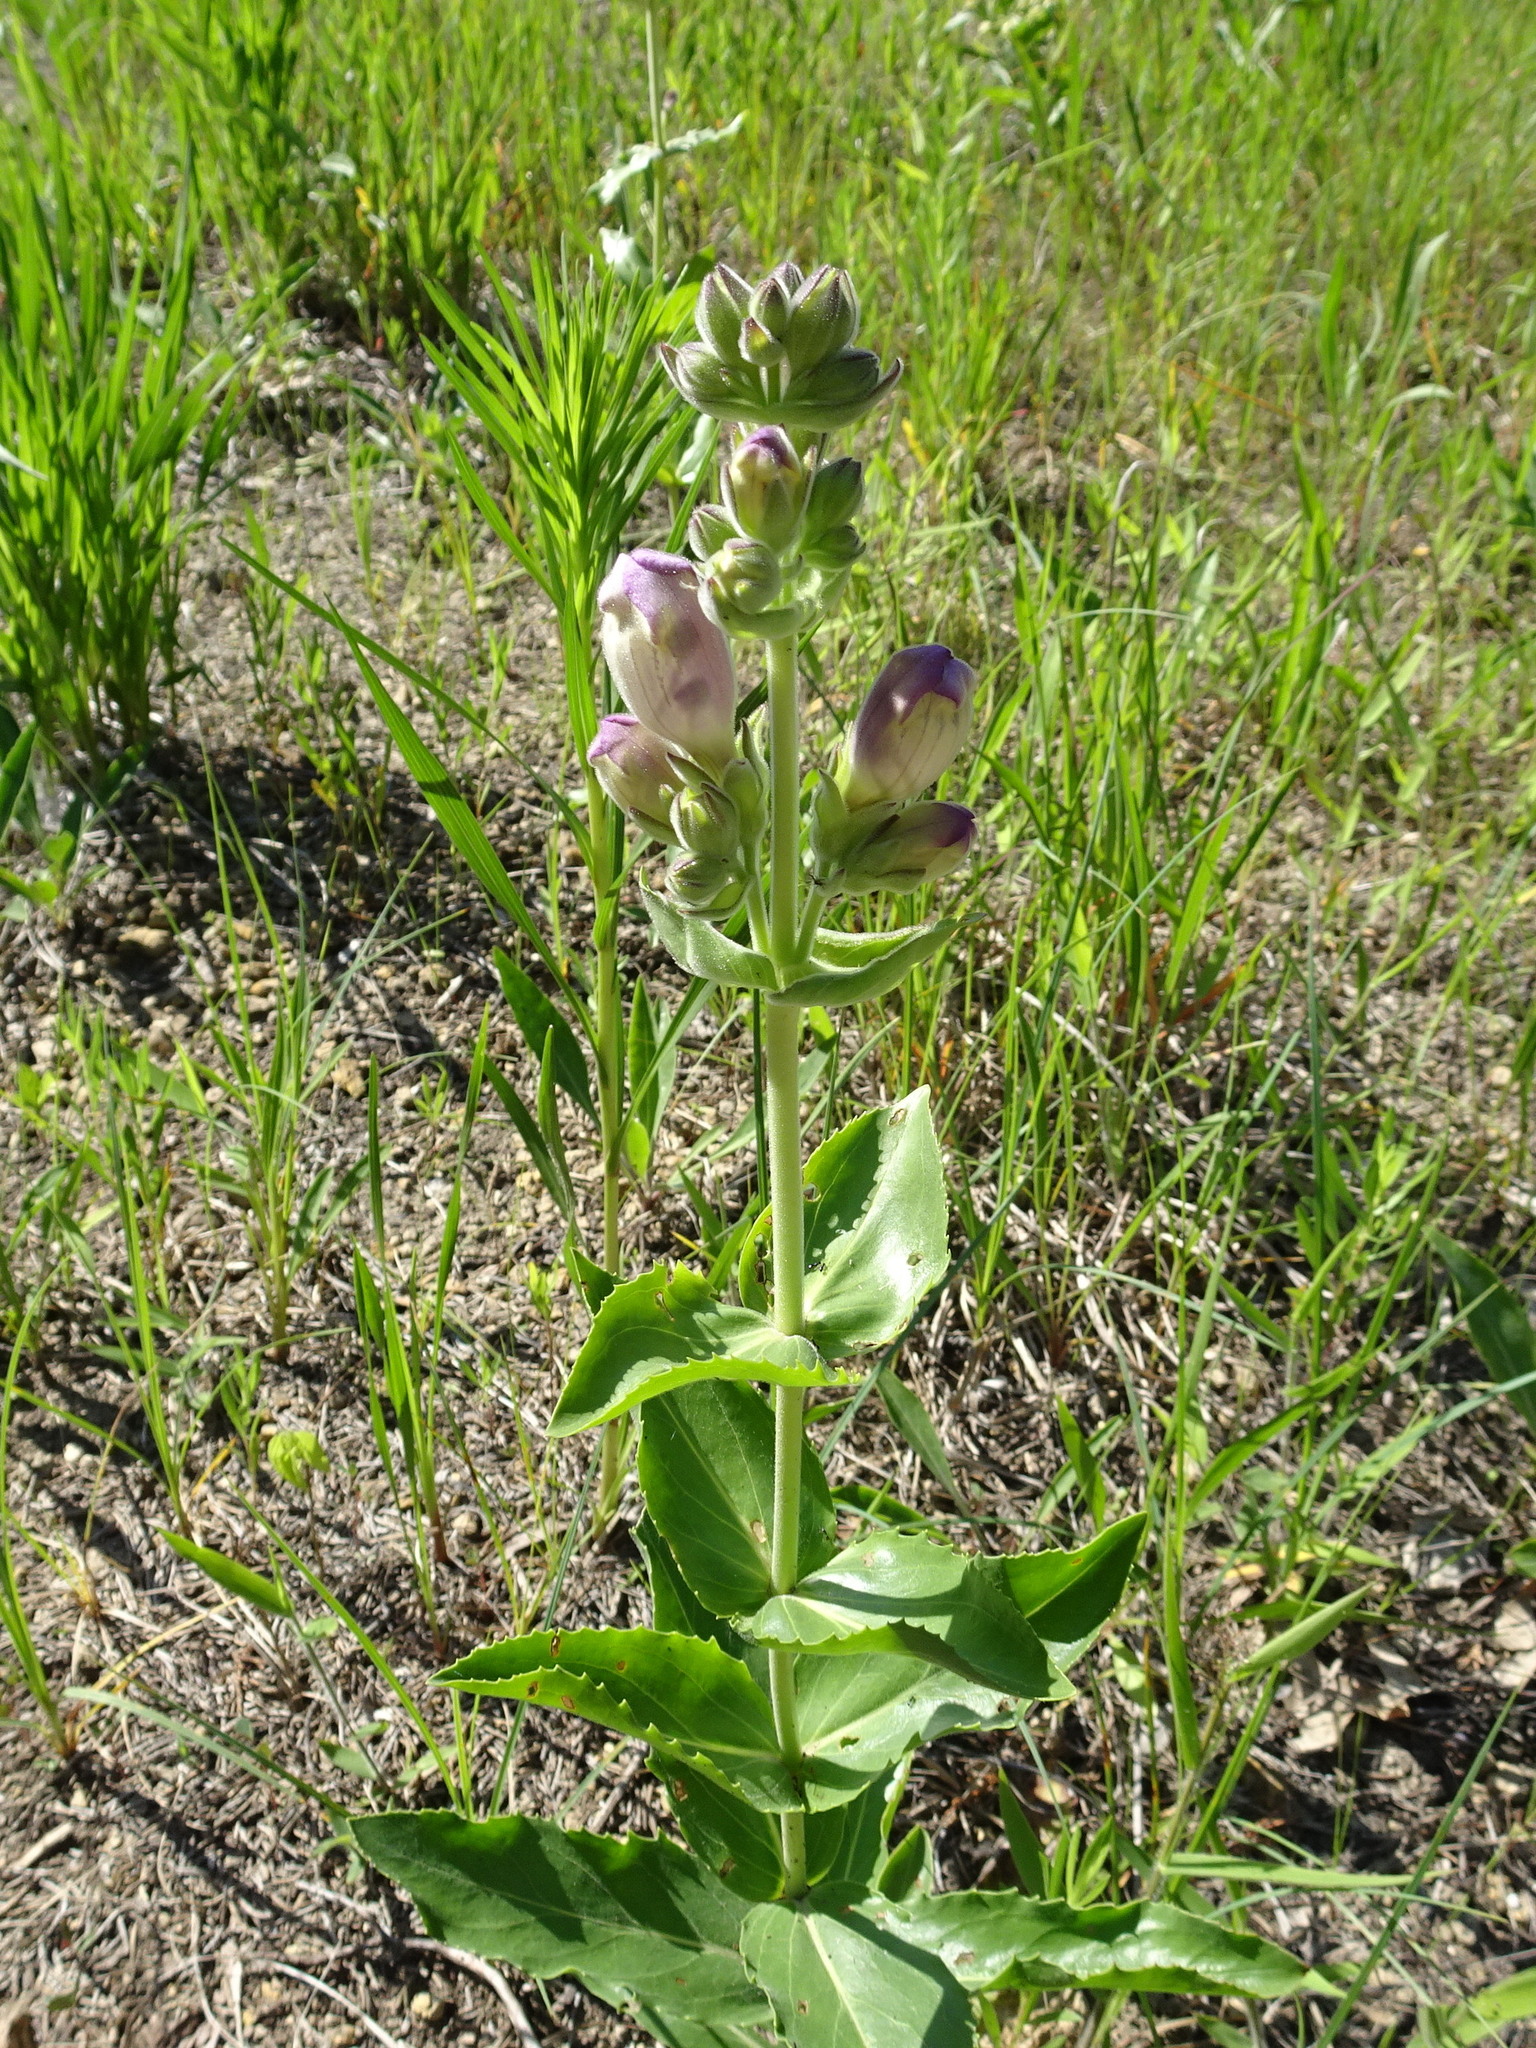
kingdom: Plantae
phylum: Tracheophyta
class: Magnoliopsida
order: Lamiales
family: Plantaginaceae
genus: Penstemon
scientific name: Penstemon cobaea
